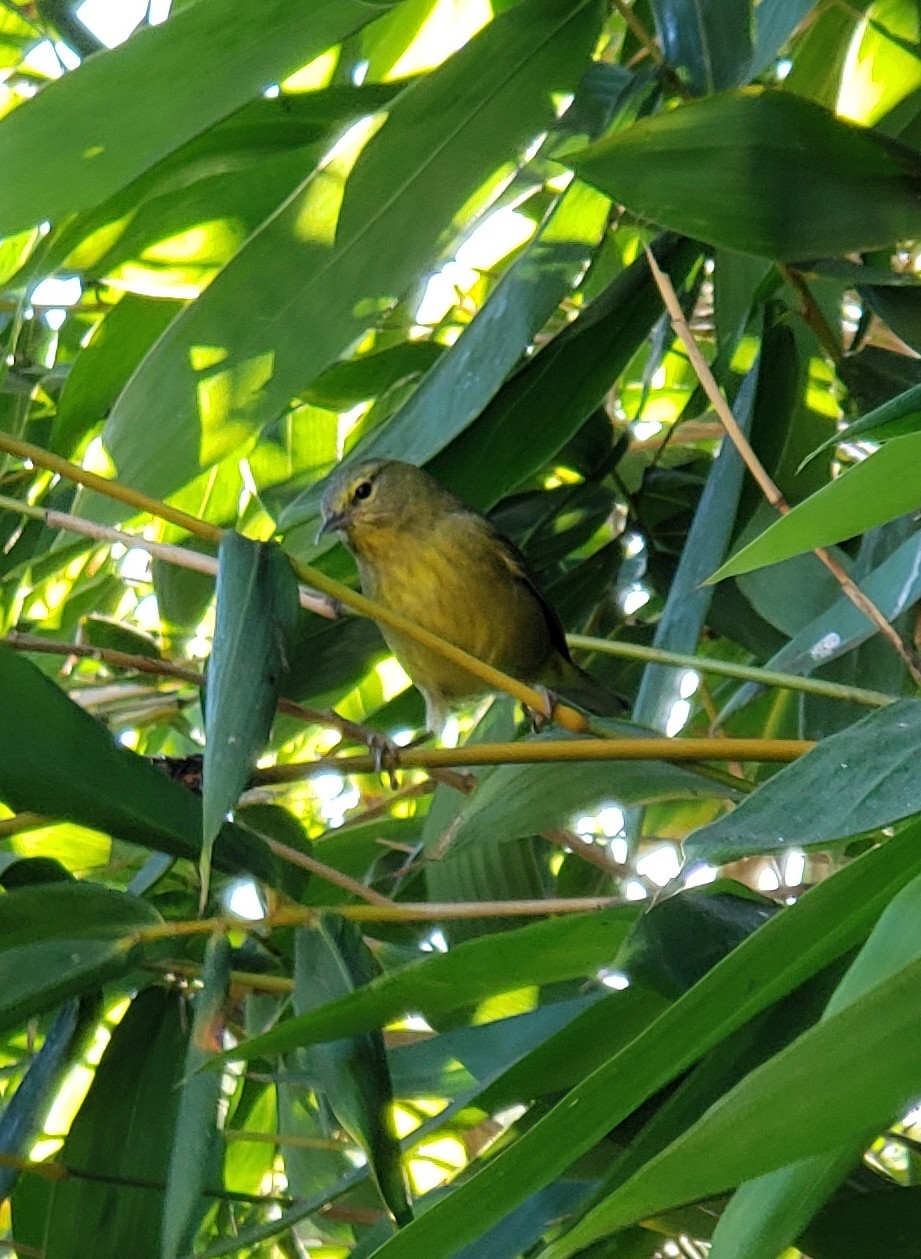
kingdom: Animalia
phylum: Chordata
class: Aves
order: Passeriformes
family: Parulidae
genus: Leiothlypis
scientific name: Leiothlypis celata
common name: Orange-crowned warbler
